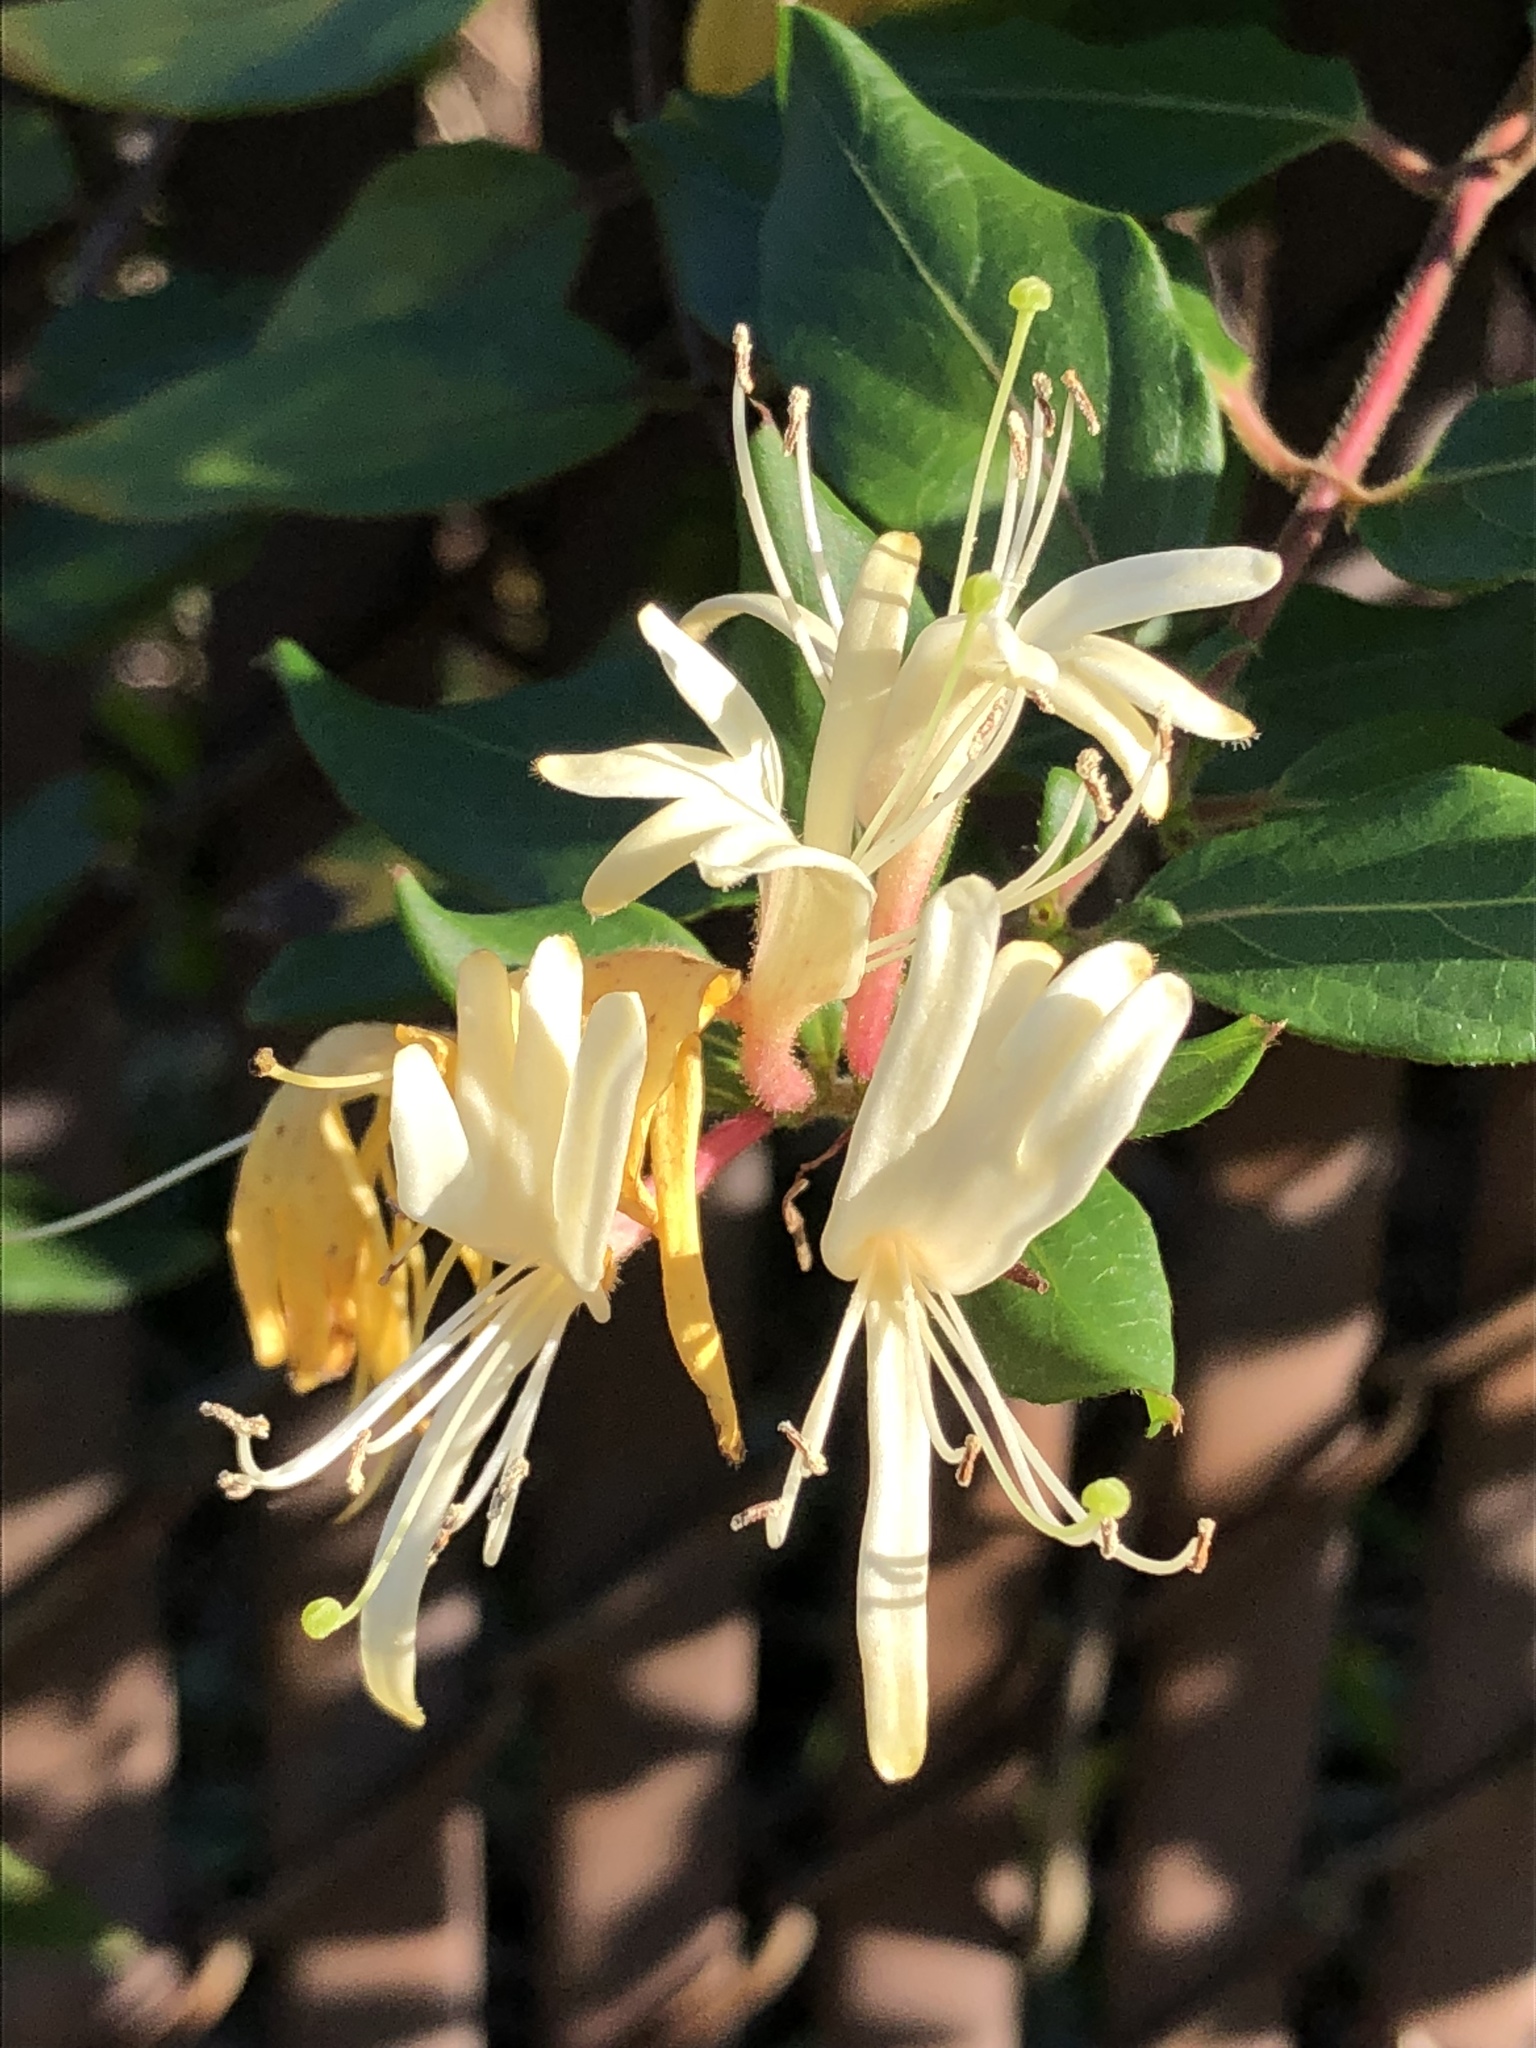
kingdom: Plantae
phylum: Tracheophyta
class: Magnoliopsida
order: Dipsacales
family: Caprifoliaceae
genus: Lonicera
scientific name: Lonicera japonica
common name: Japanese honeysuckle
